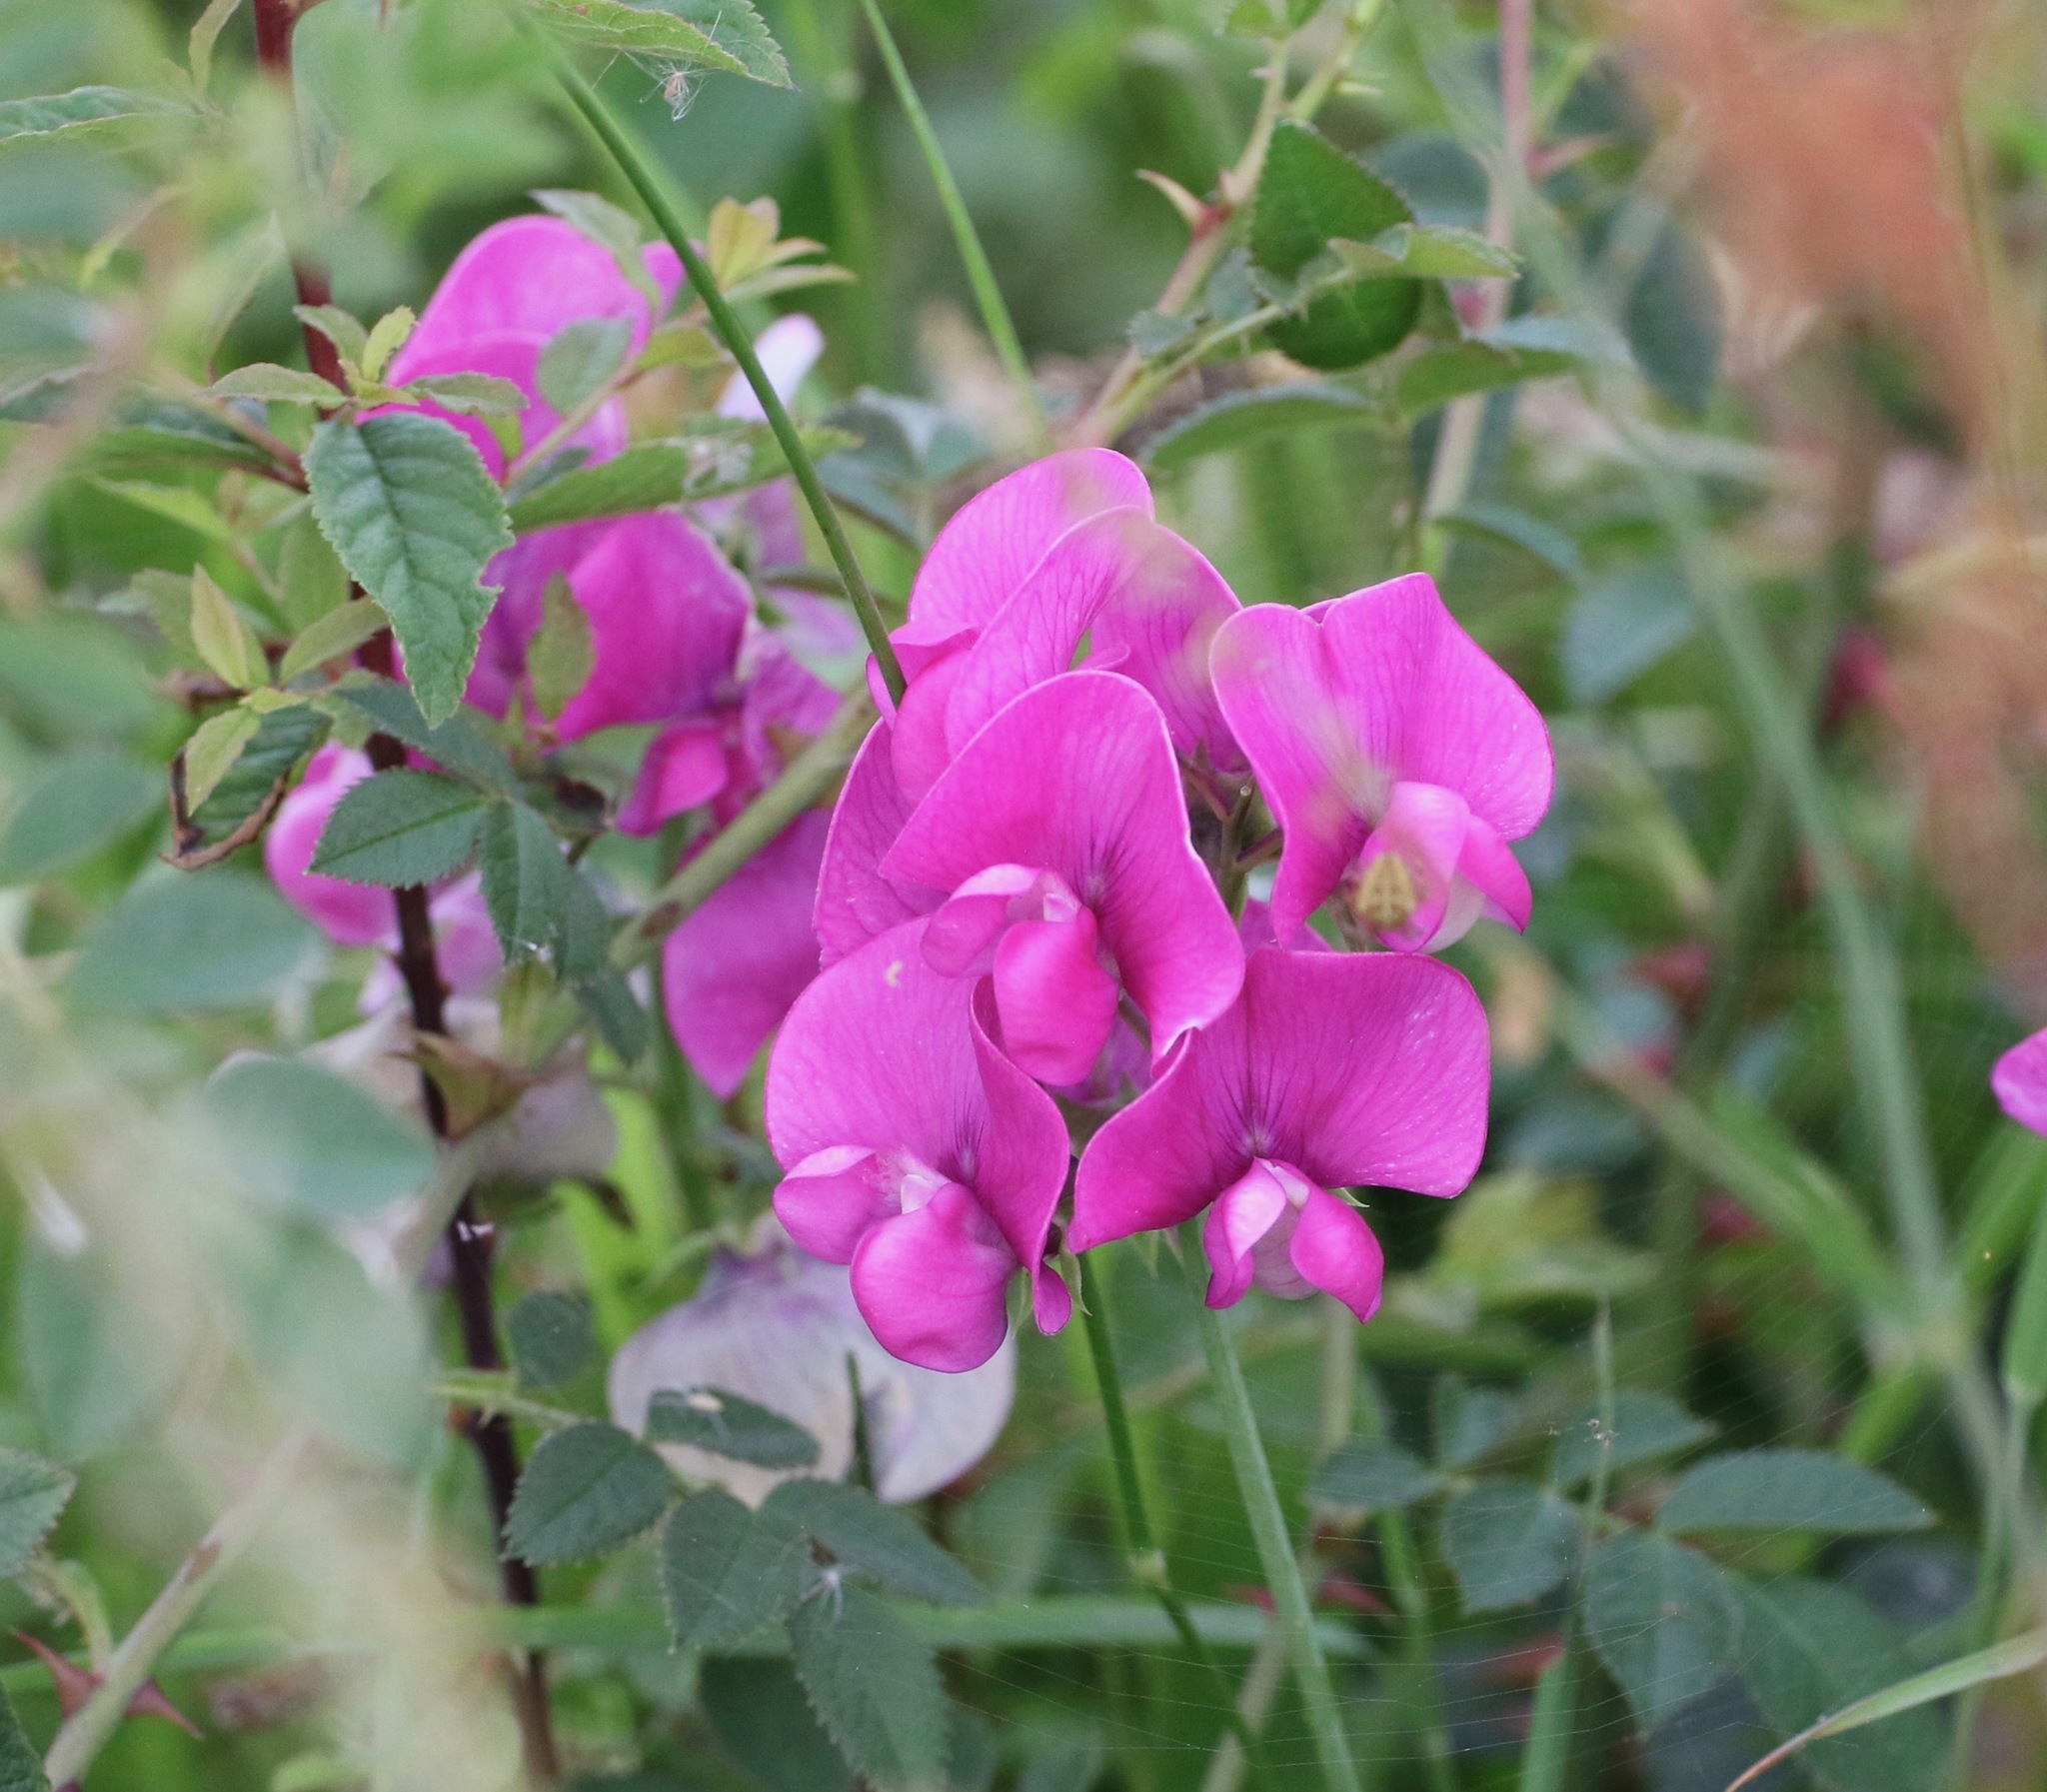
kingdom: Plantae
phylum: Tracheophyta
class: Magnoliopsida
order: Fabales
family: Fabaceae
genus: Lathyrus
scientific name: Lathyrus latifolius
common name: Perennial pea
